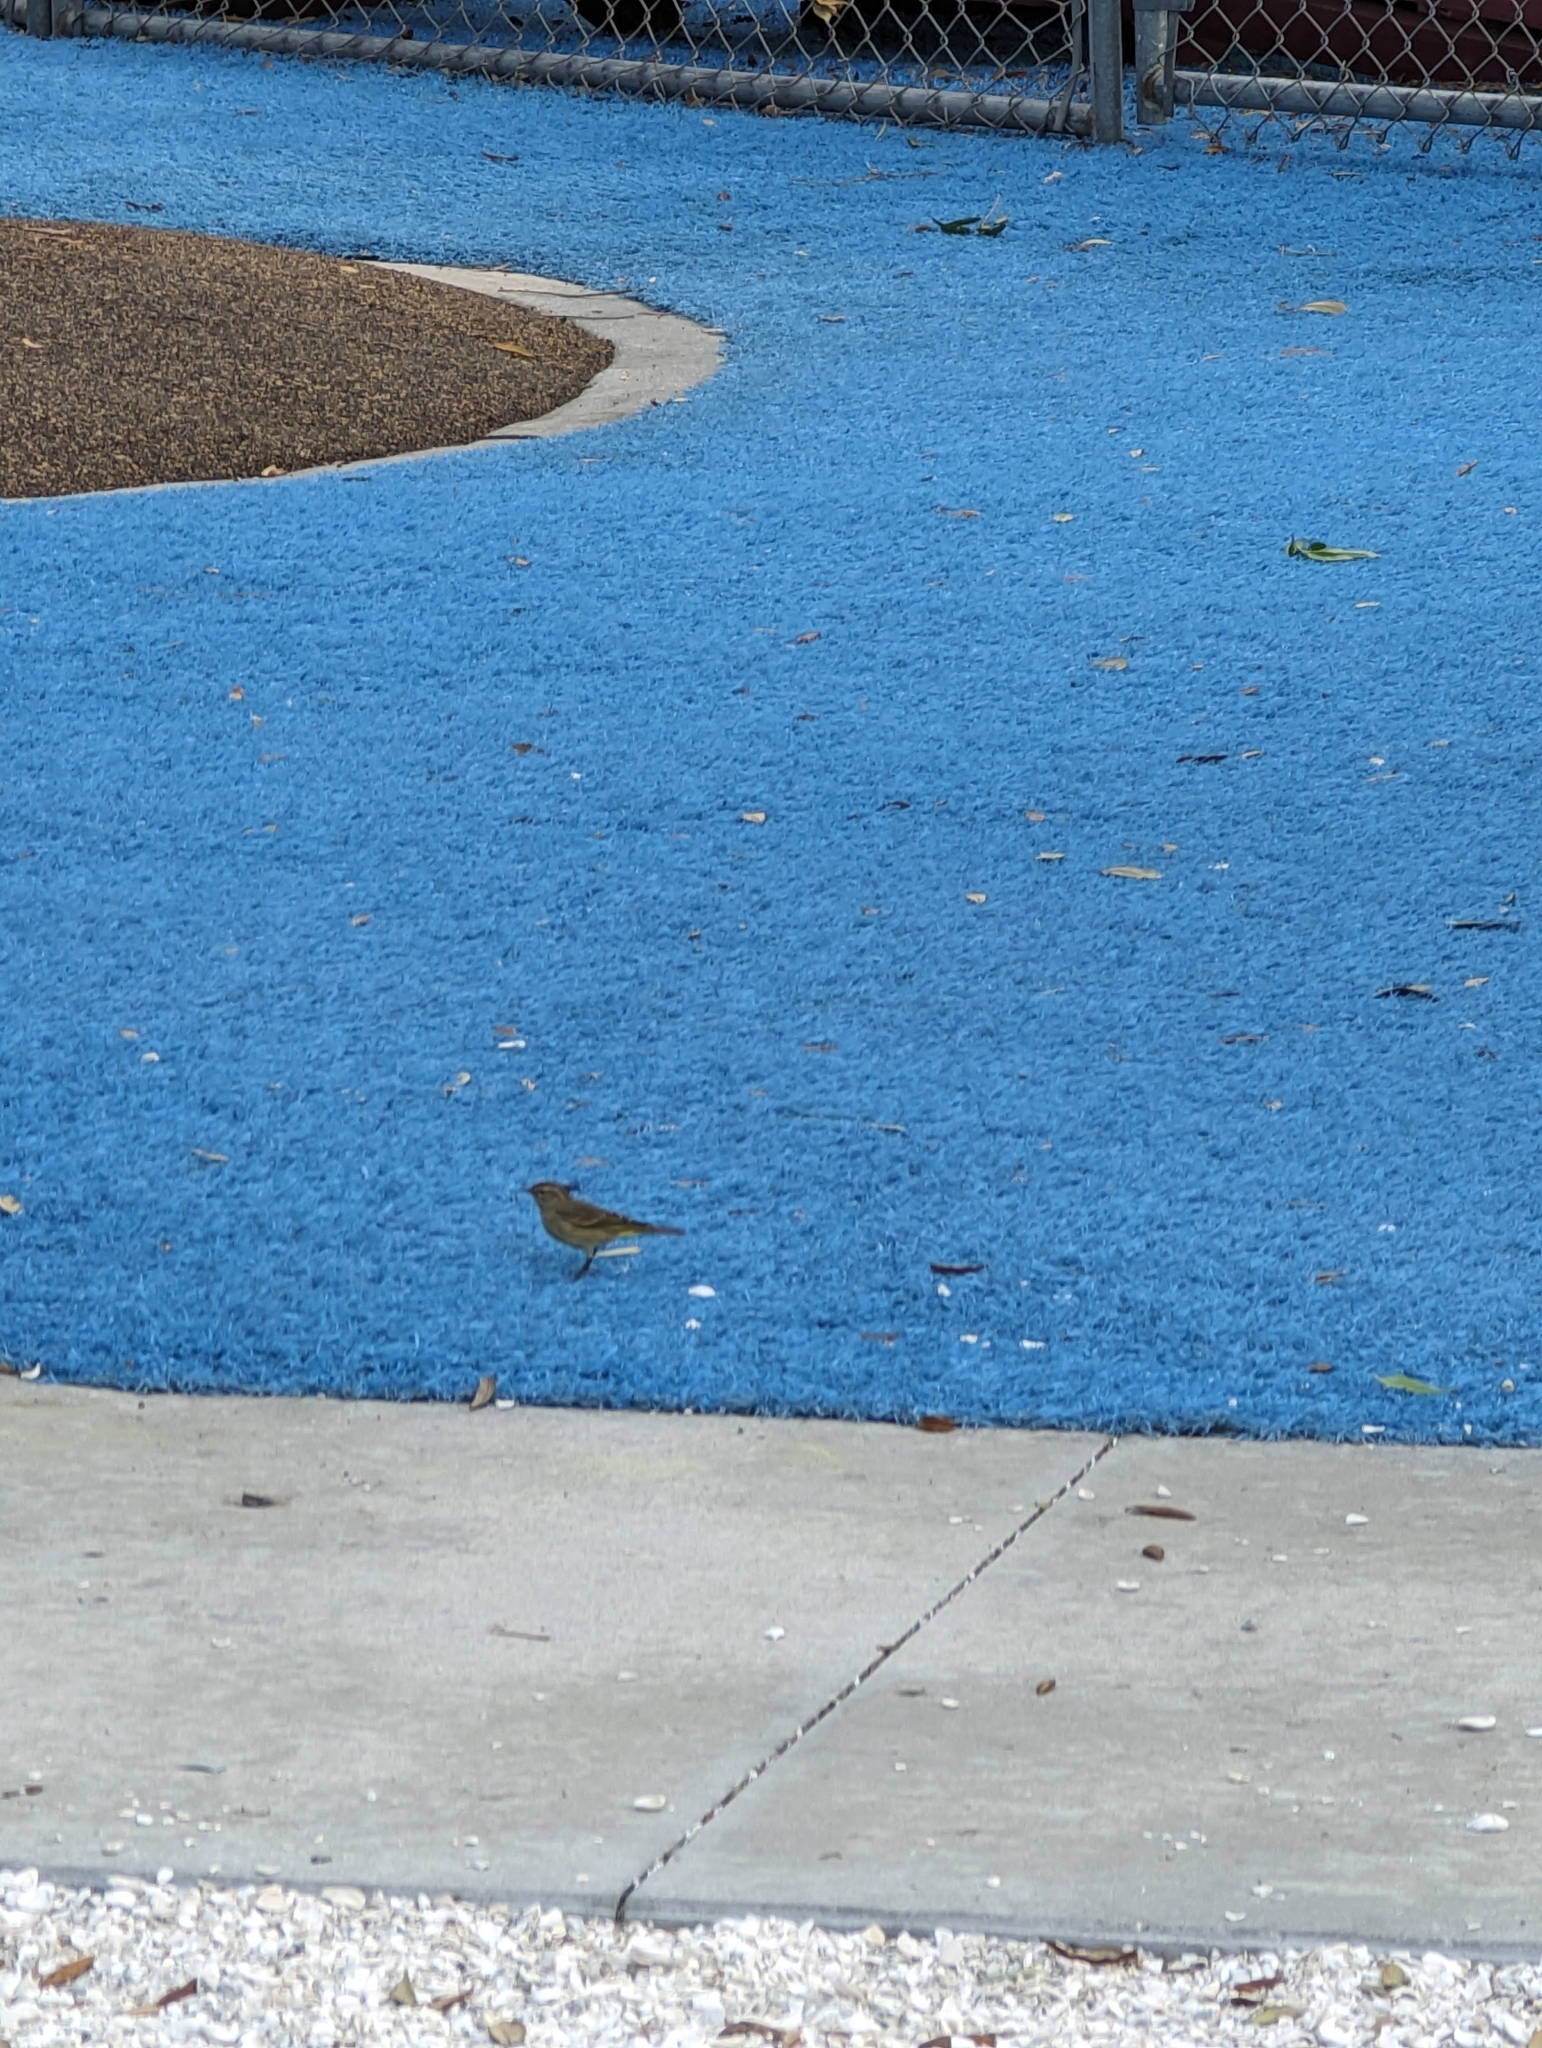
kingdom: Animalia
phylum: Chordata
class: Aves
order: Passeriformes
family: Parulidae
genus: Setophaga
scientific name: Setophaga palmarum
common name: Palm warbler
